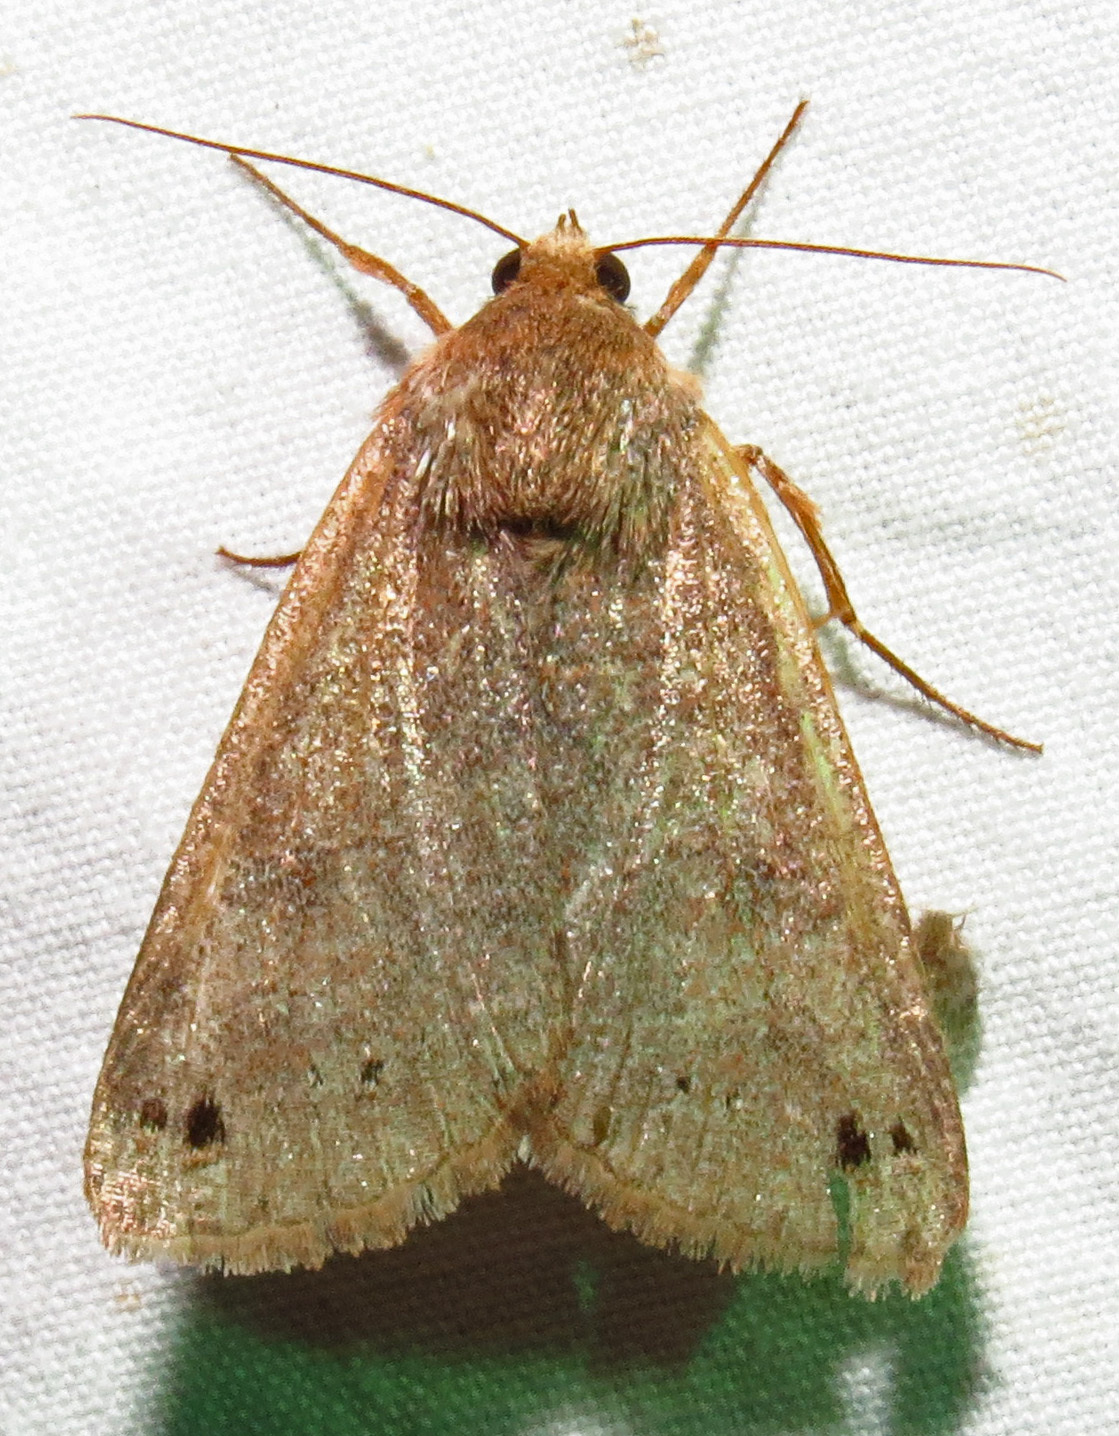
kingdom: Animalia
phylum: Arthropoda
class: Insecta
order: Lepidoptera
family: Erebidae
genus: Cissusa
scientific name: Cissusa spadix
